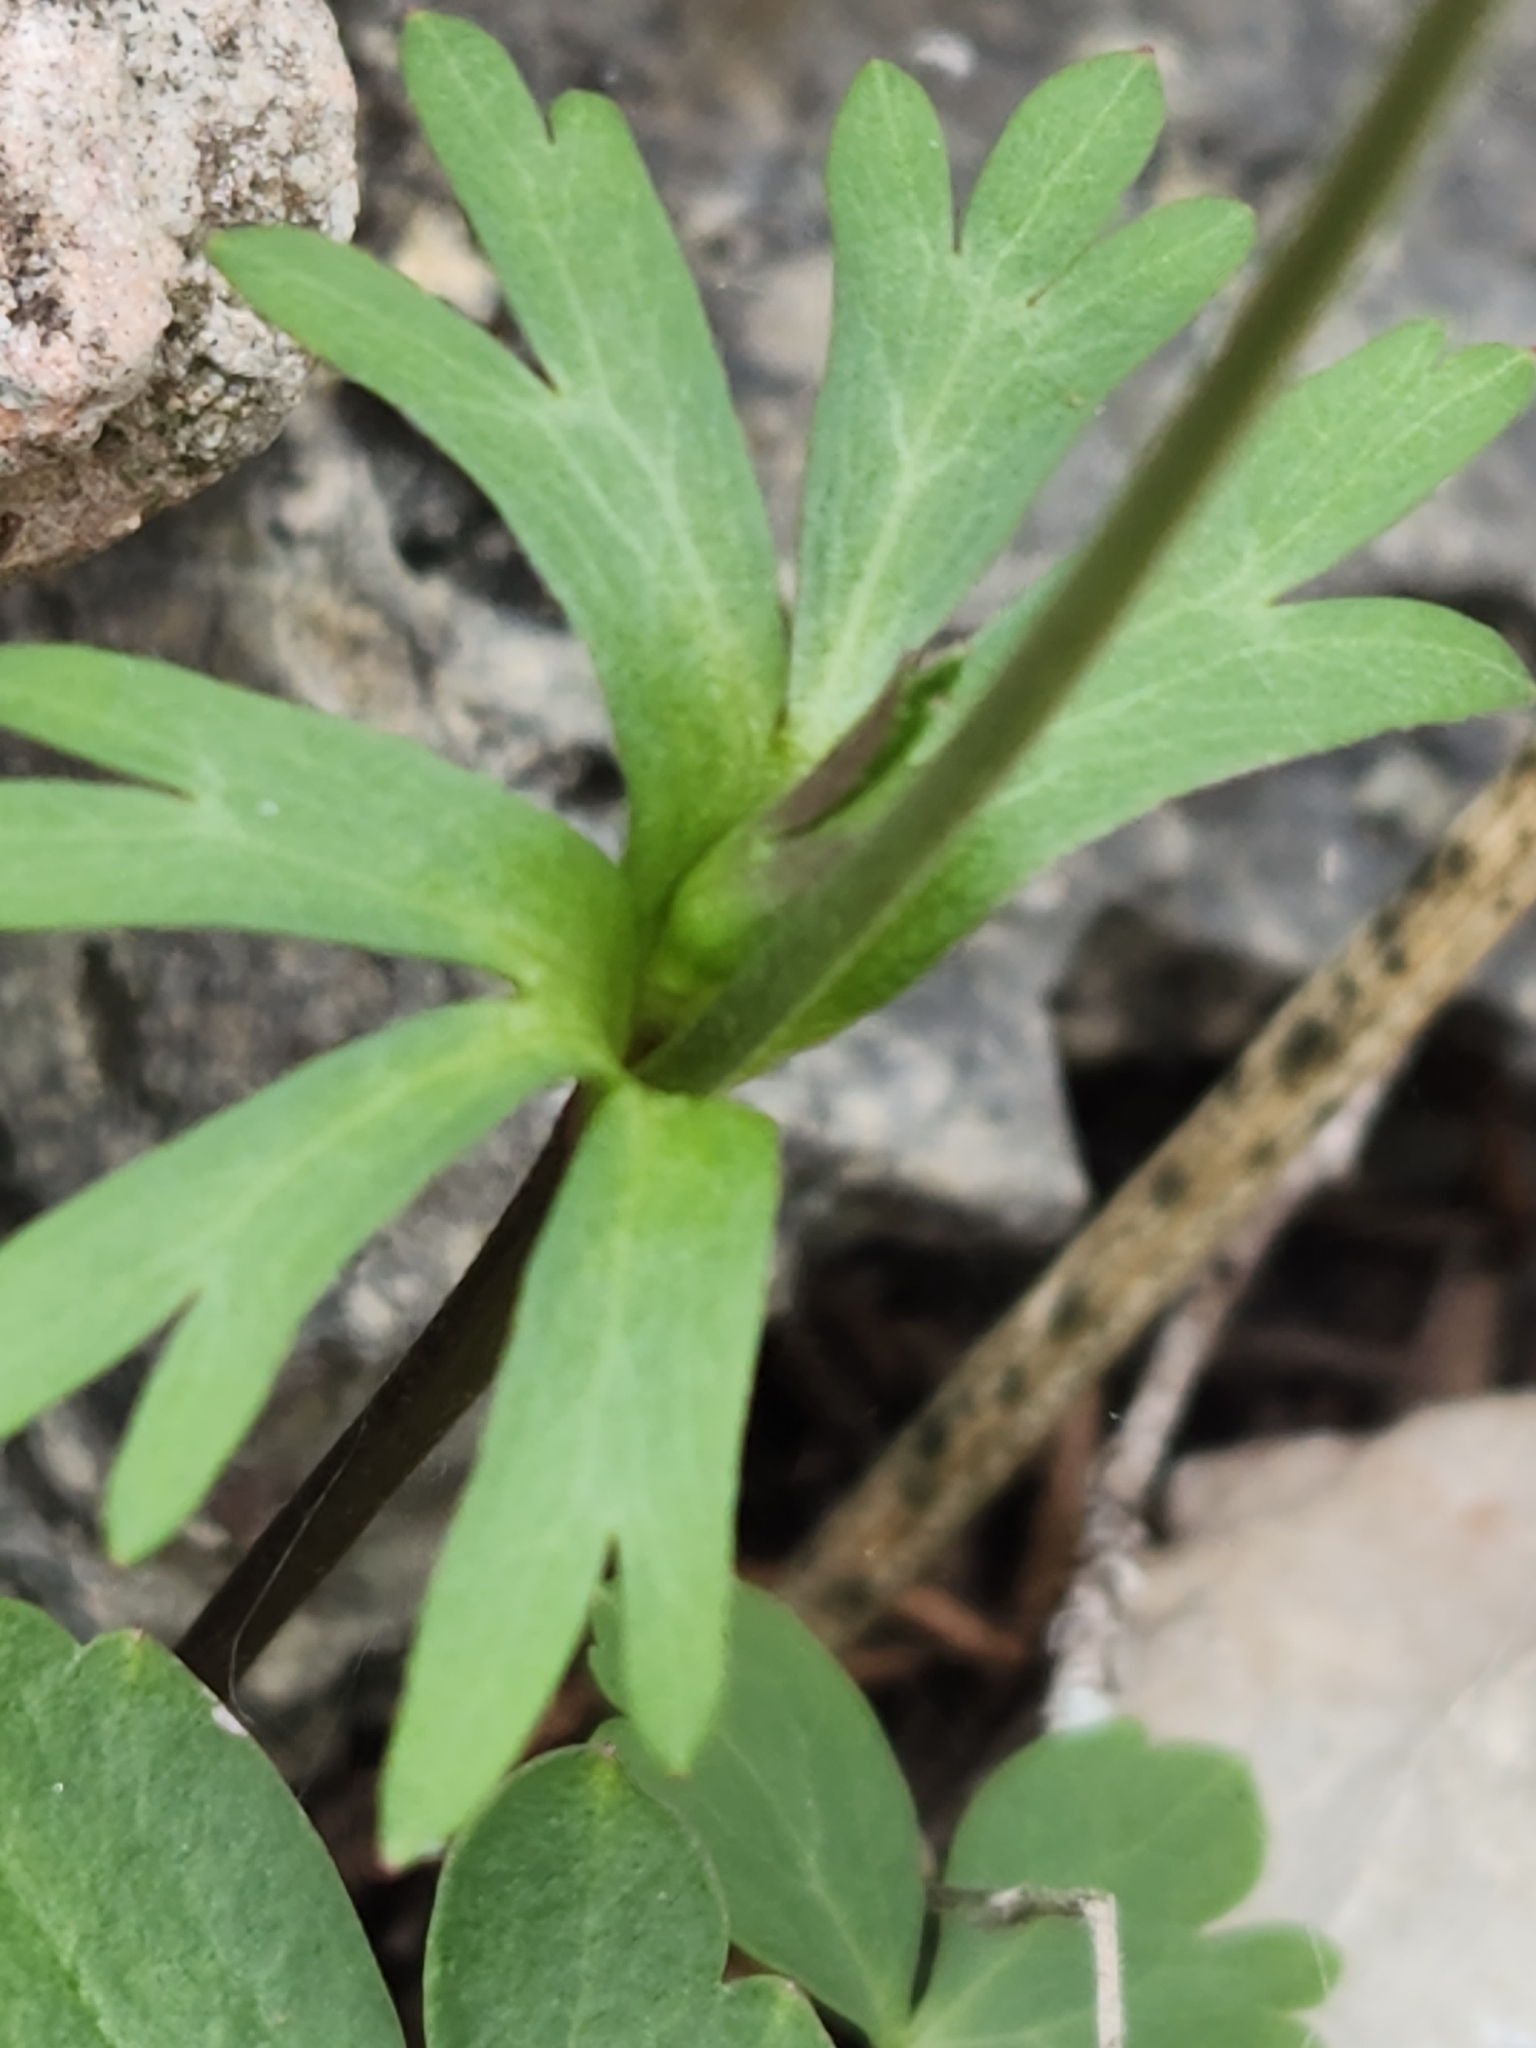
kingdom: Plantae
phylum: Tracheophyta
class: Magnoliopsida
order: Ranunculales
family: Ranunculaceae
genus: Anemone
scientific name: Anemone edwardsiana
